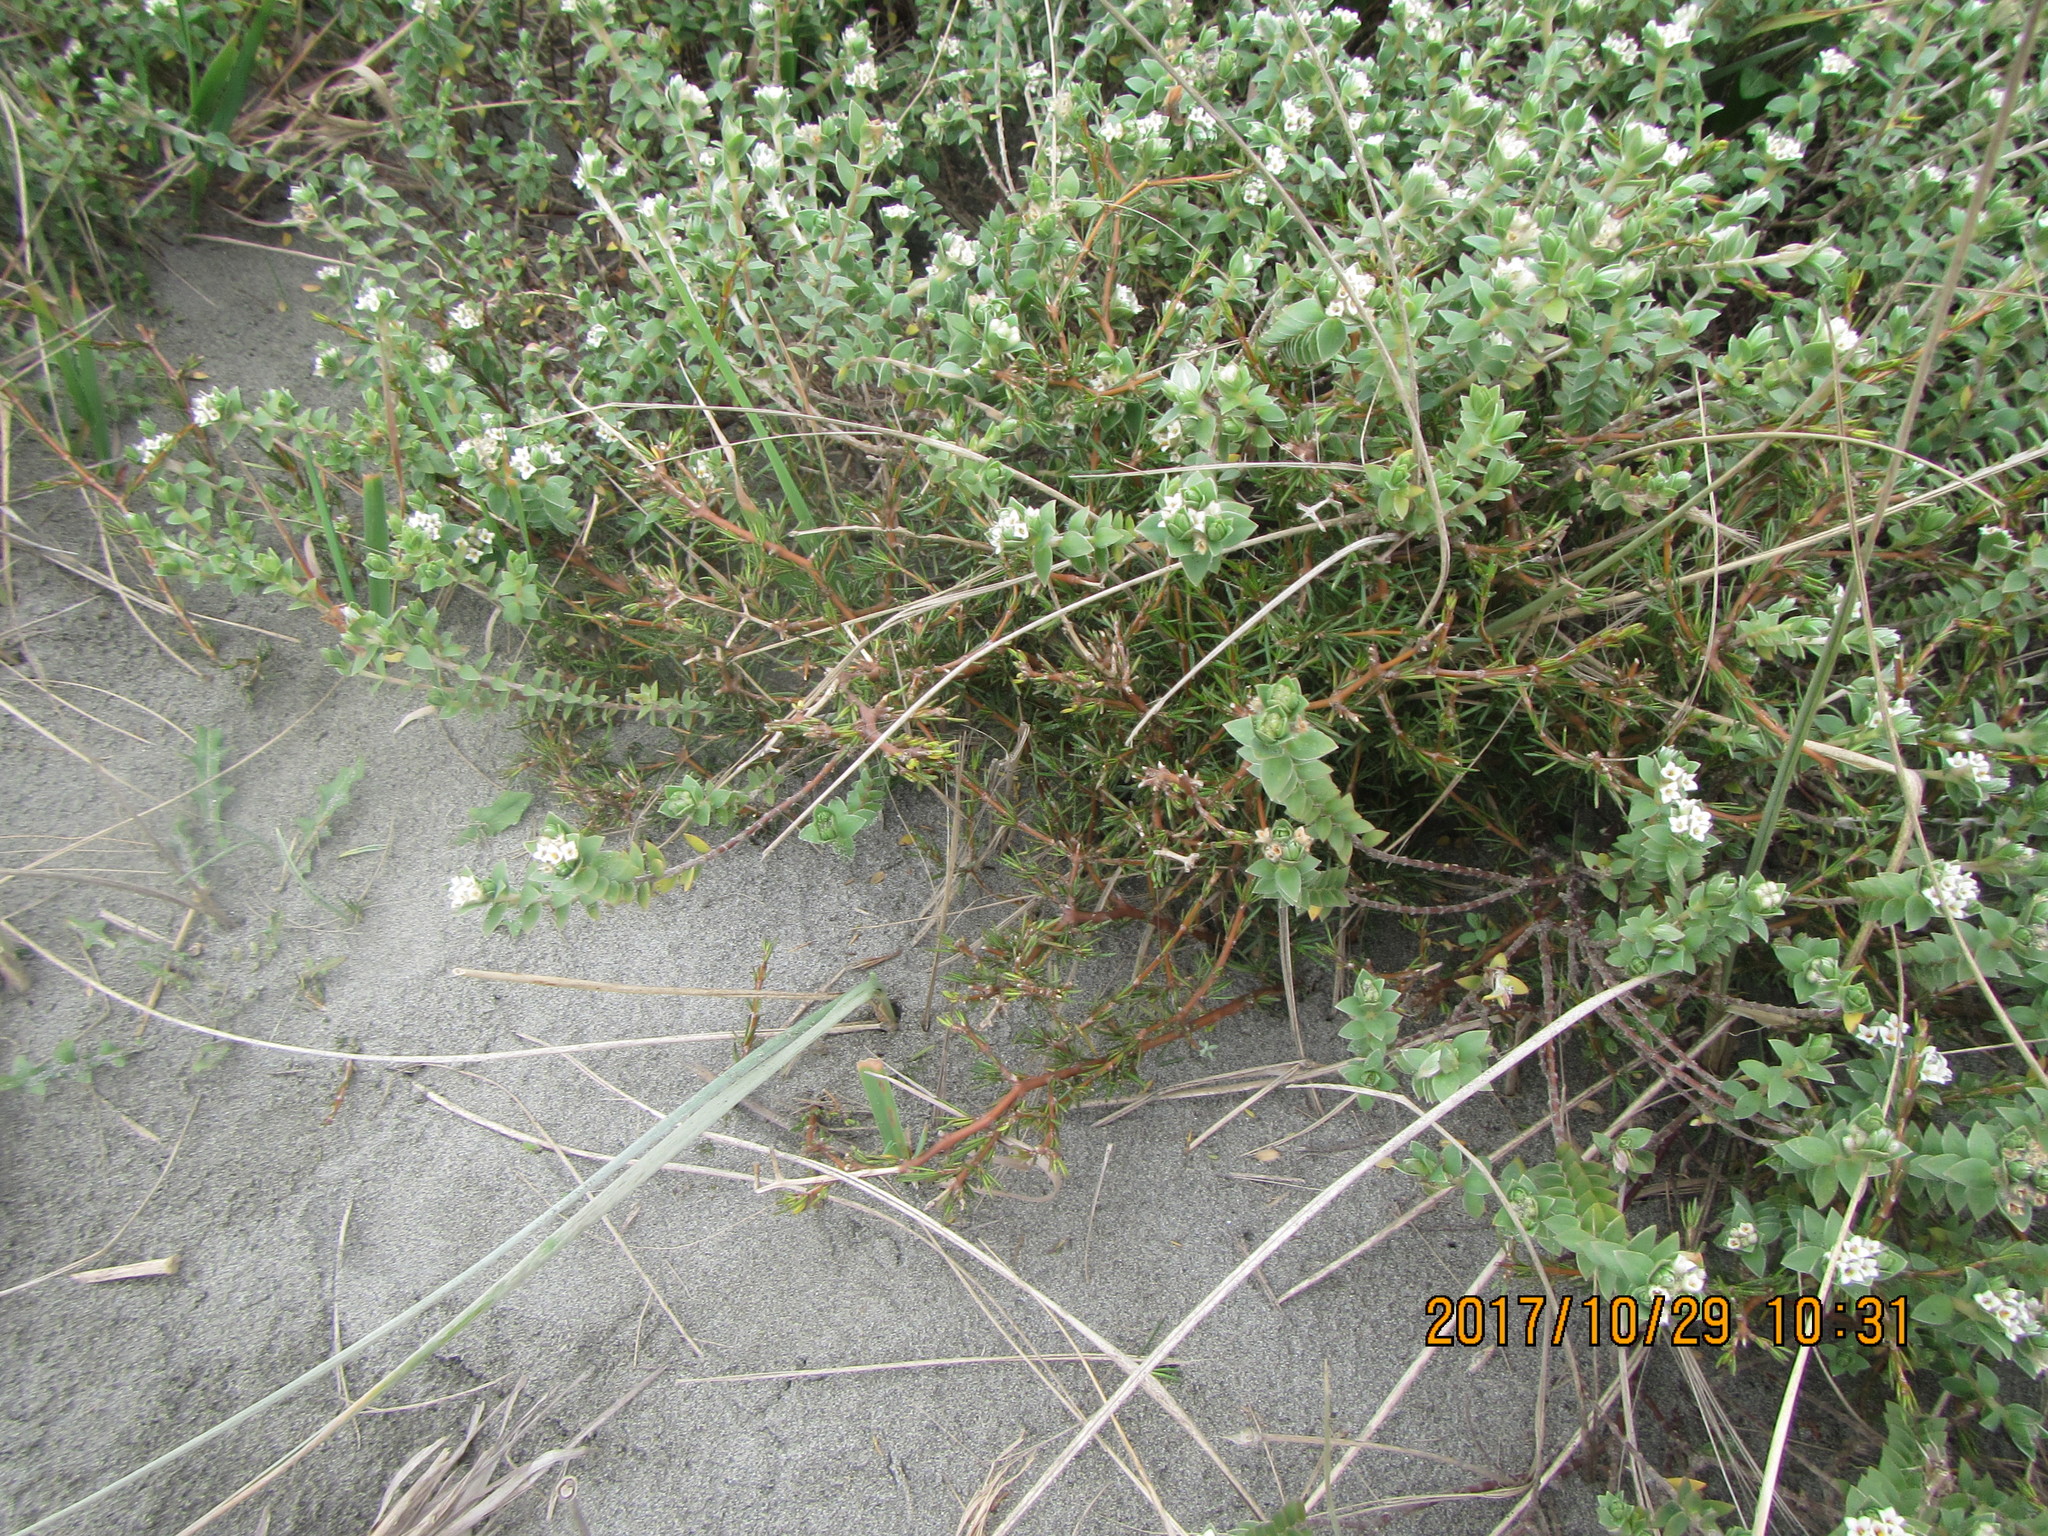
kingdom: Plantae
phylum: Tracheophyta
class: Magnoliopsida
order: Malvales
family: Thymelaeaceae
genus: Pimelea
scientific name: Pimelea villosa
